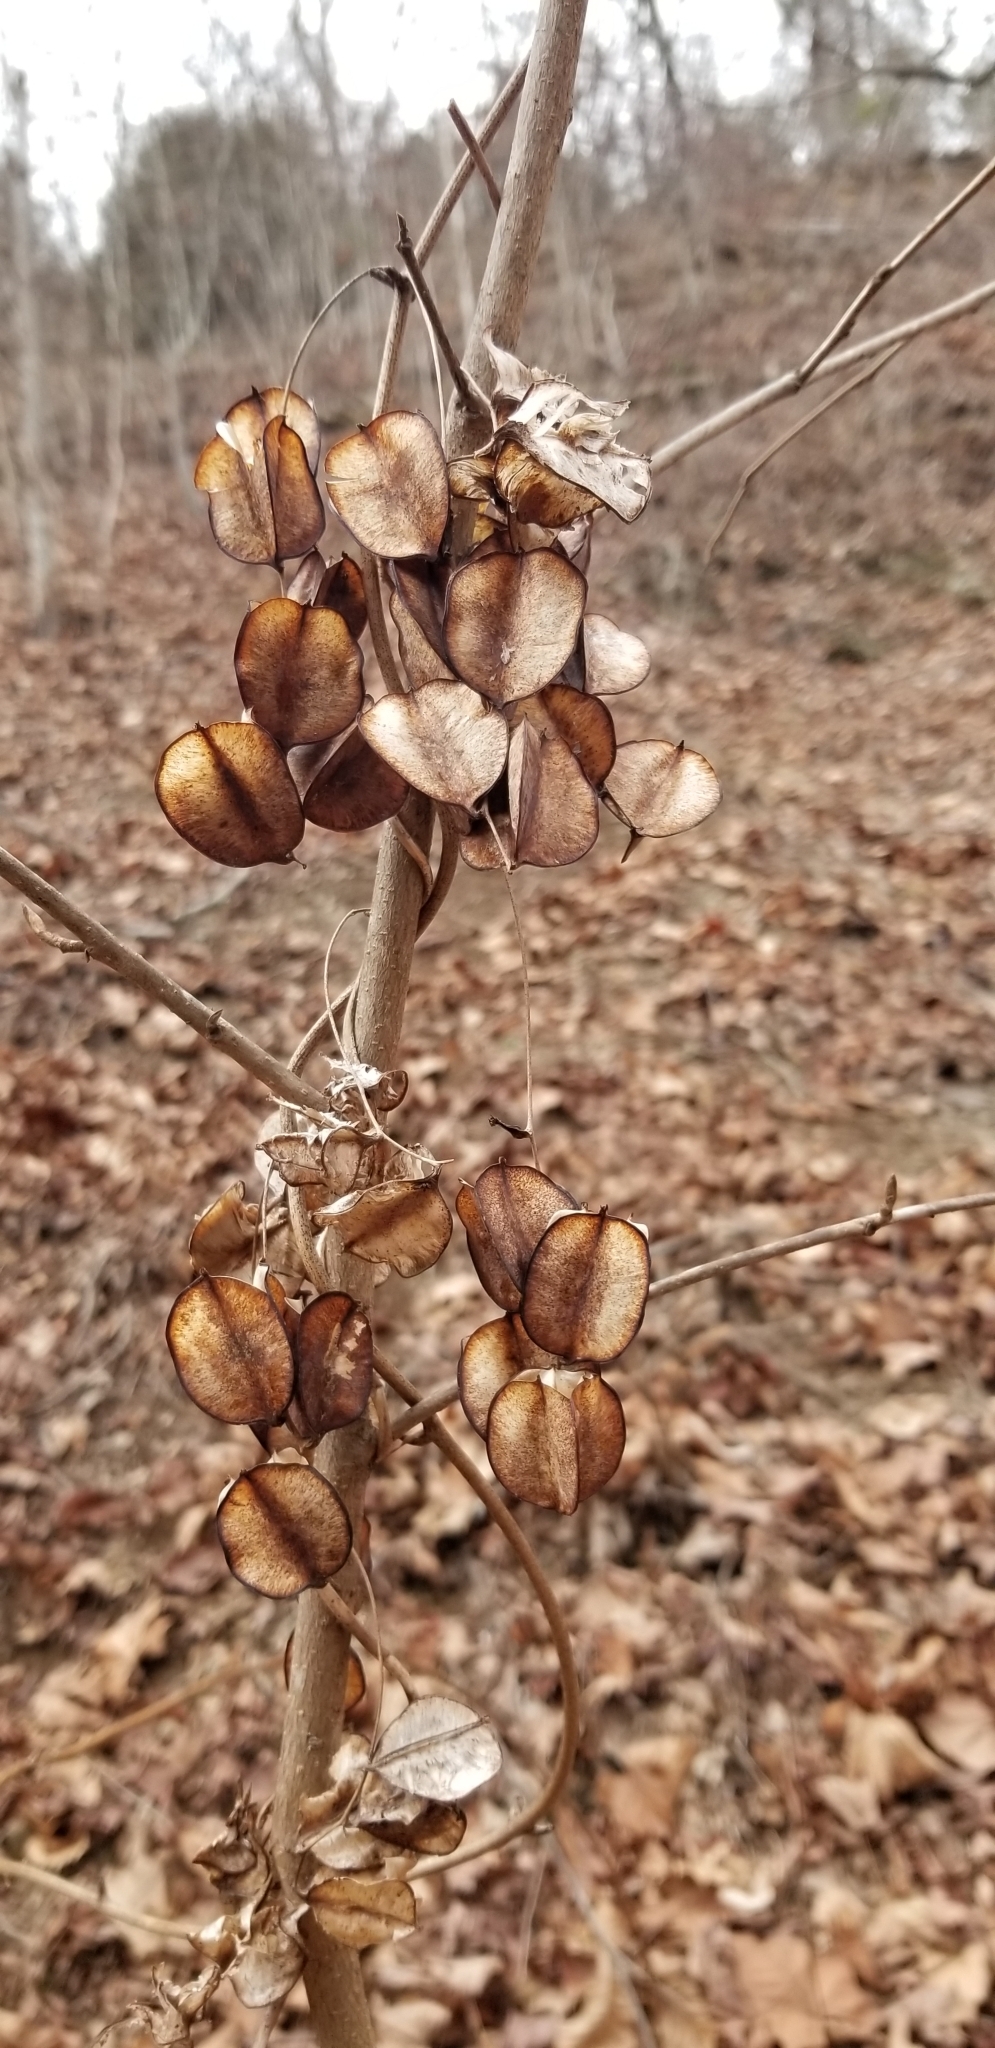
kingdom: Plantae
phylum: Tracheophyta
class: Liliopsida
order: Dioscoreales
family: Dioscoreaceae
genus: Dioscorea
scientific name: Dioscorea villosa
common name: Wild yam
